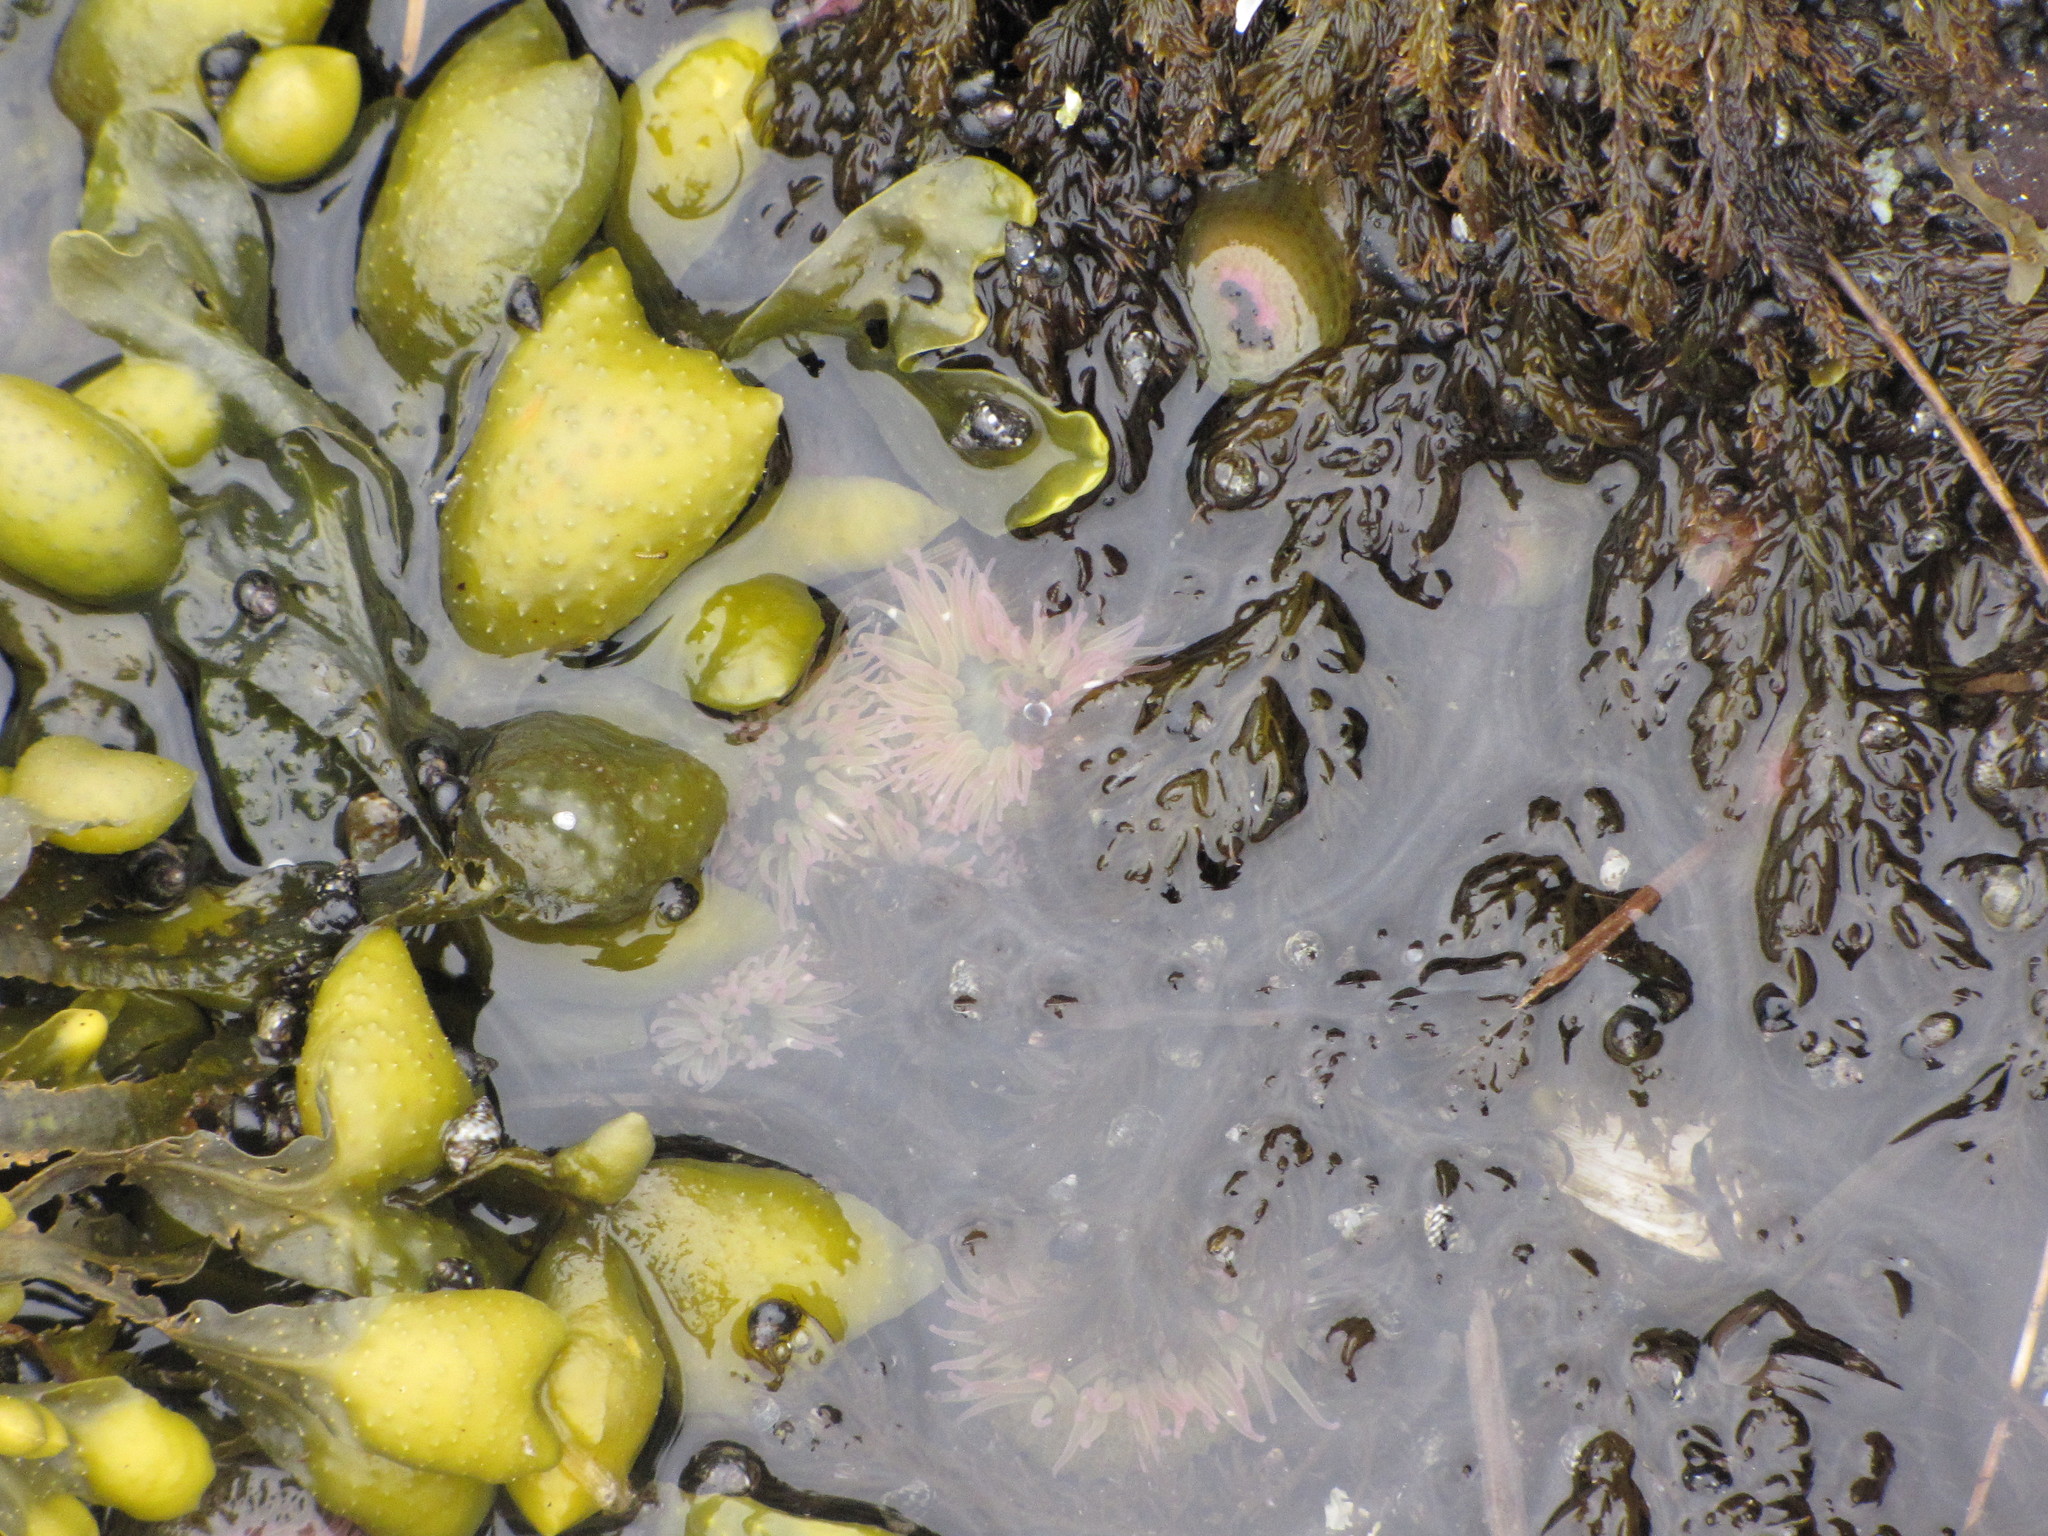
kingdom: Animalia
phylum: Cnidaria
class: Anthozoa
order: Actiniaria
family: Actiniidae
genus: Anthopleura
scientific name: Anthopleura elegantissima
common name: Clonal anemone
